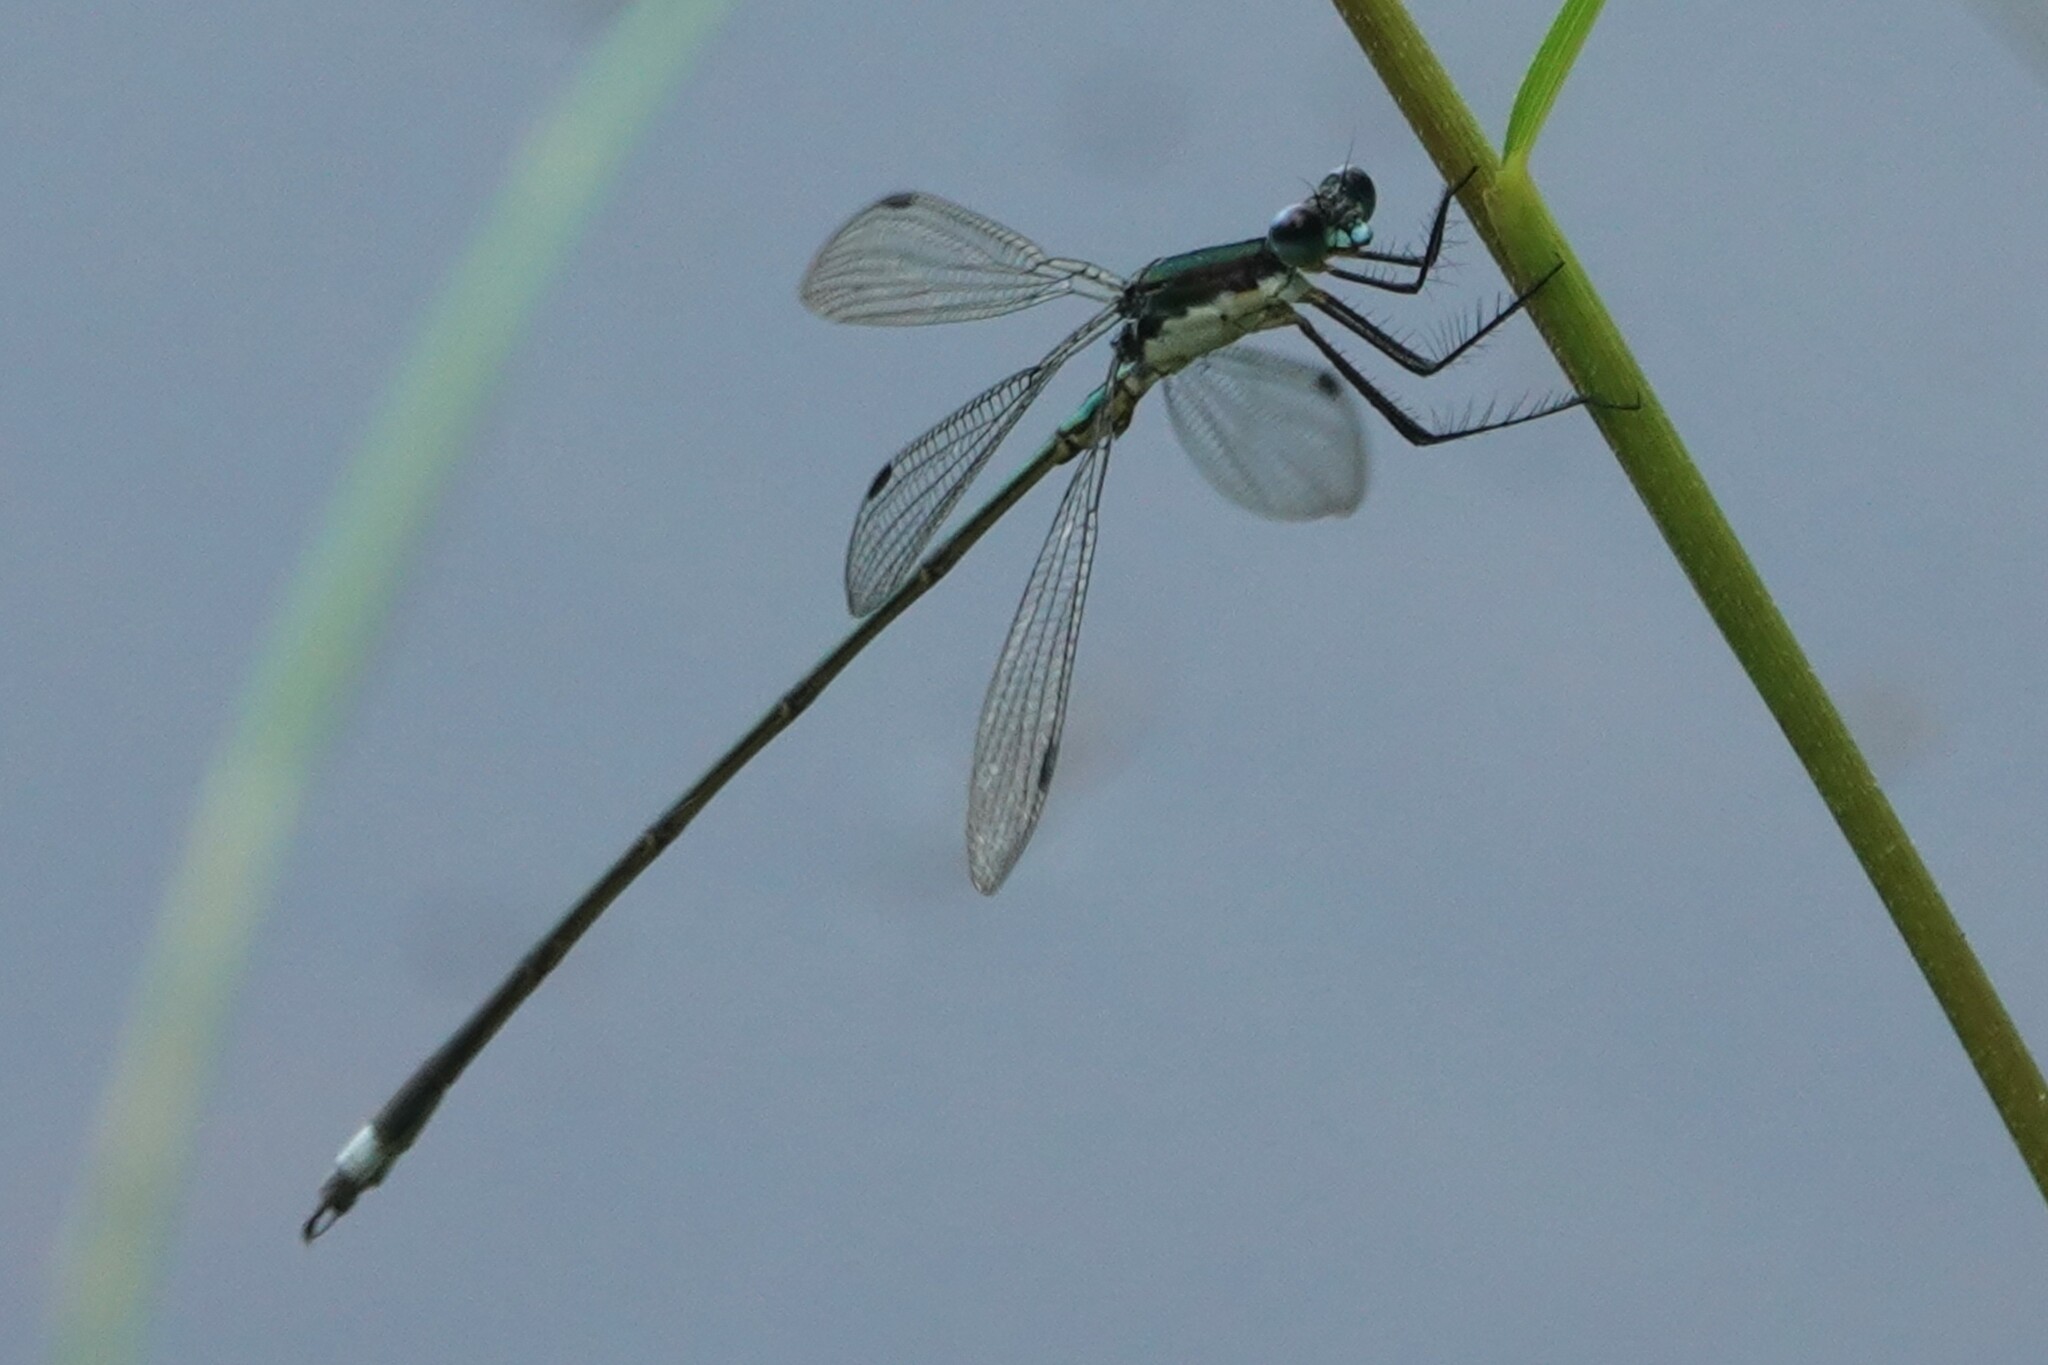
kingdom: Animalia
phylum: Arthropoda
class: Insecta
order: Odonata
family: Lestidae
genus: Lestes
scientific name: Lestes vigilax
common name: Swamp spreadwing
